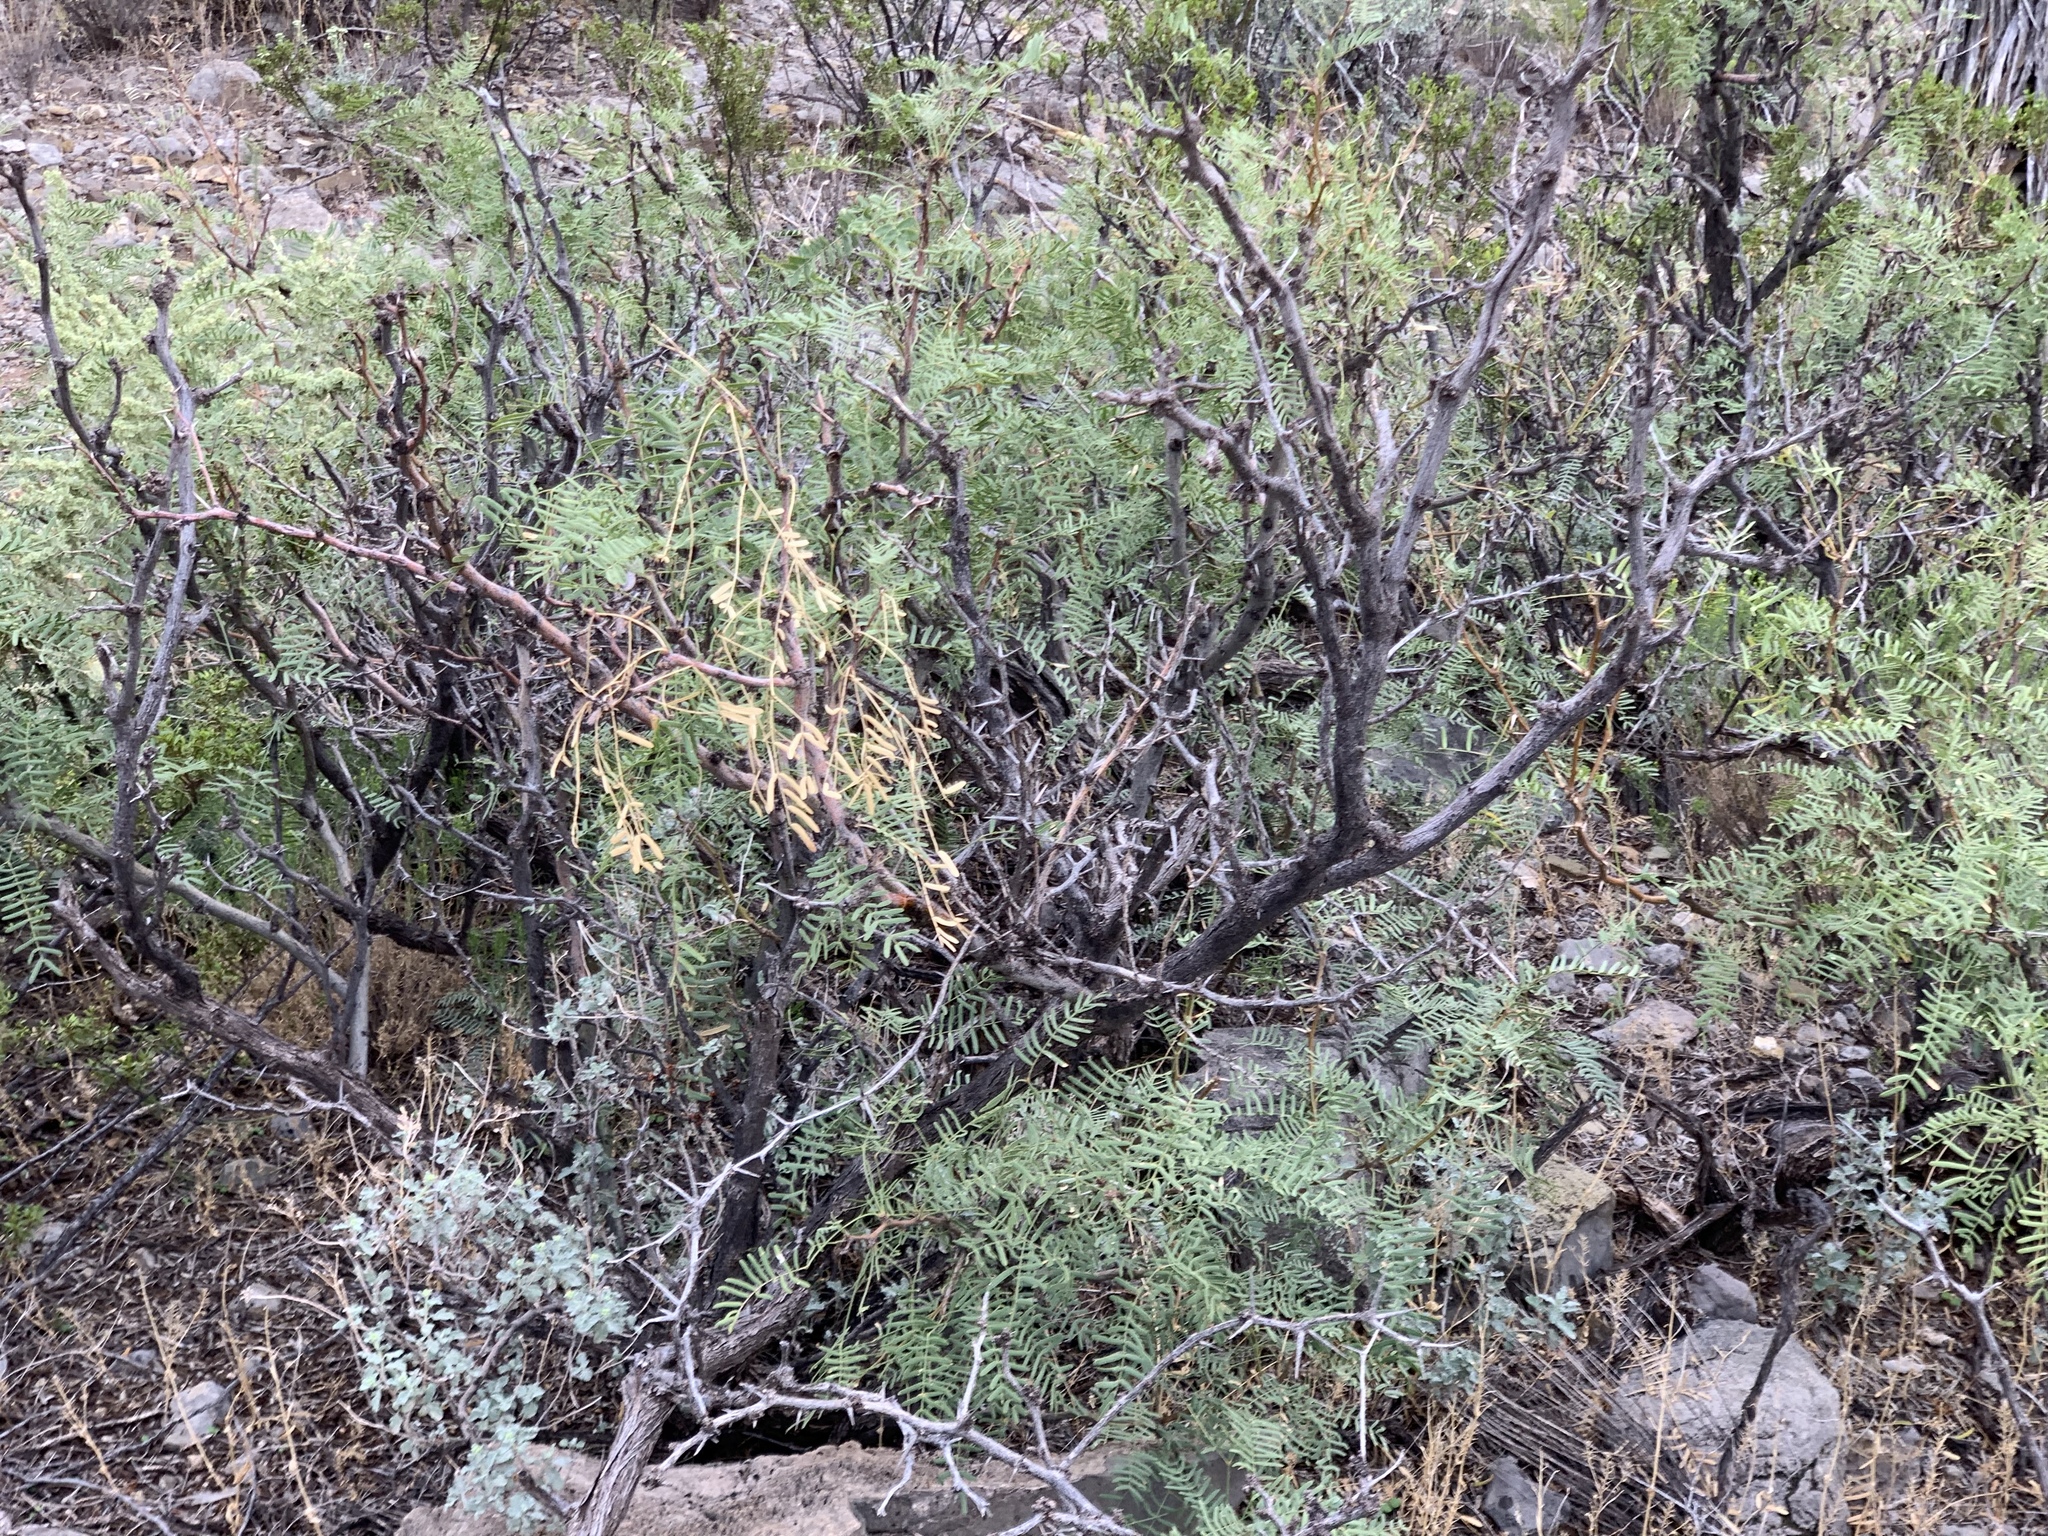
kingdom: Plantae
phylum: Tracheophyta
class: Magnoliopsida
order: Fabales
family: Fabaceae
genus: Prosopis
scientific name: Prosopis glandulosa
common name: Honey mesquite
